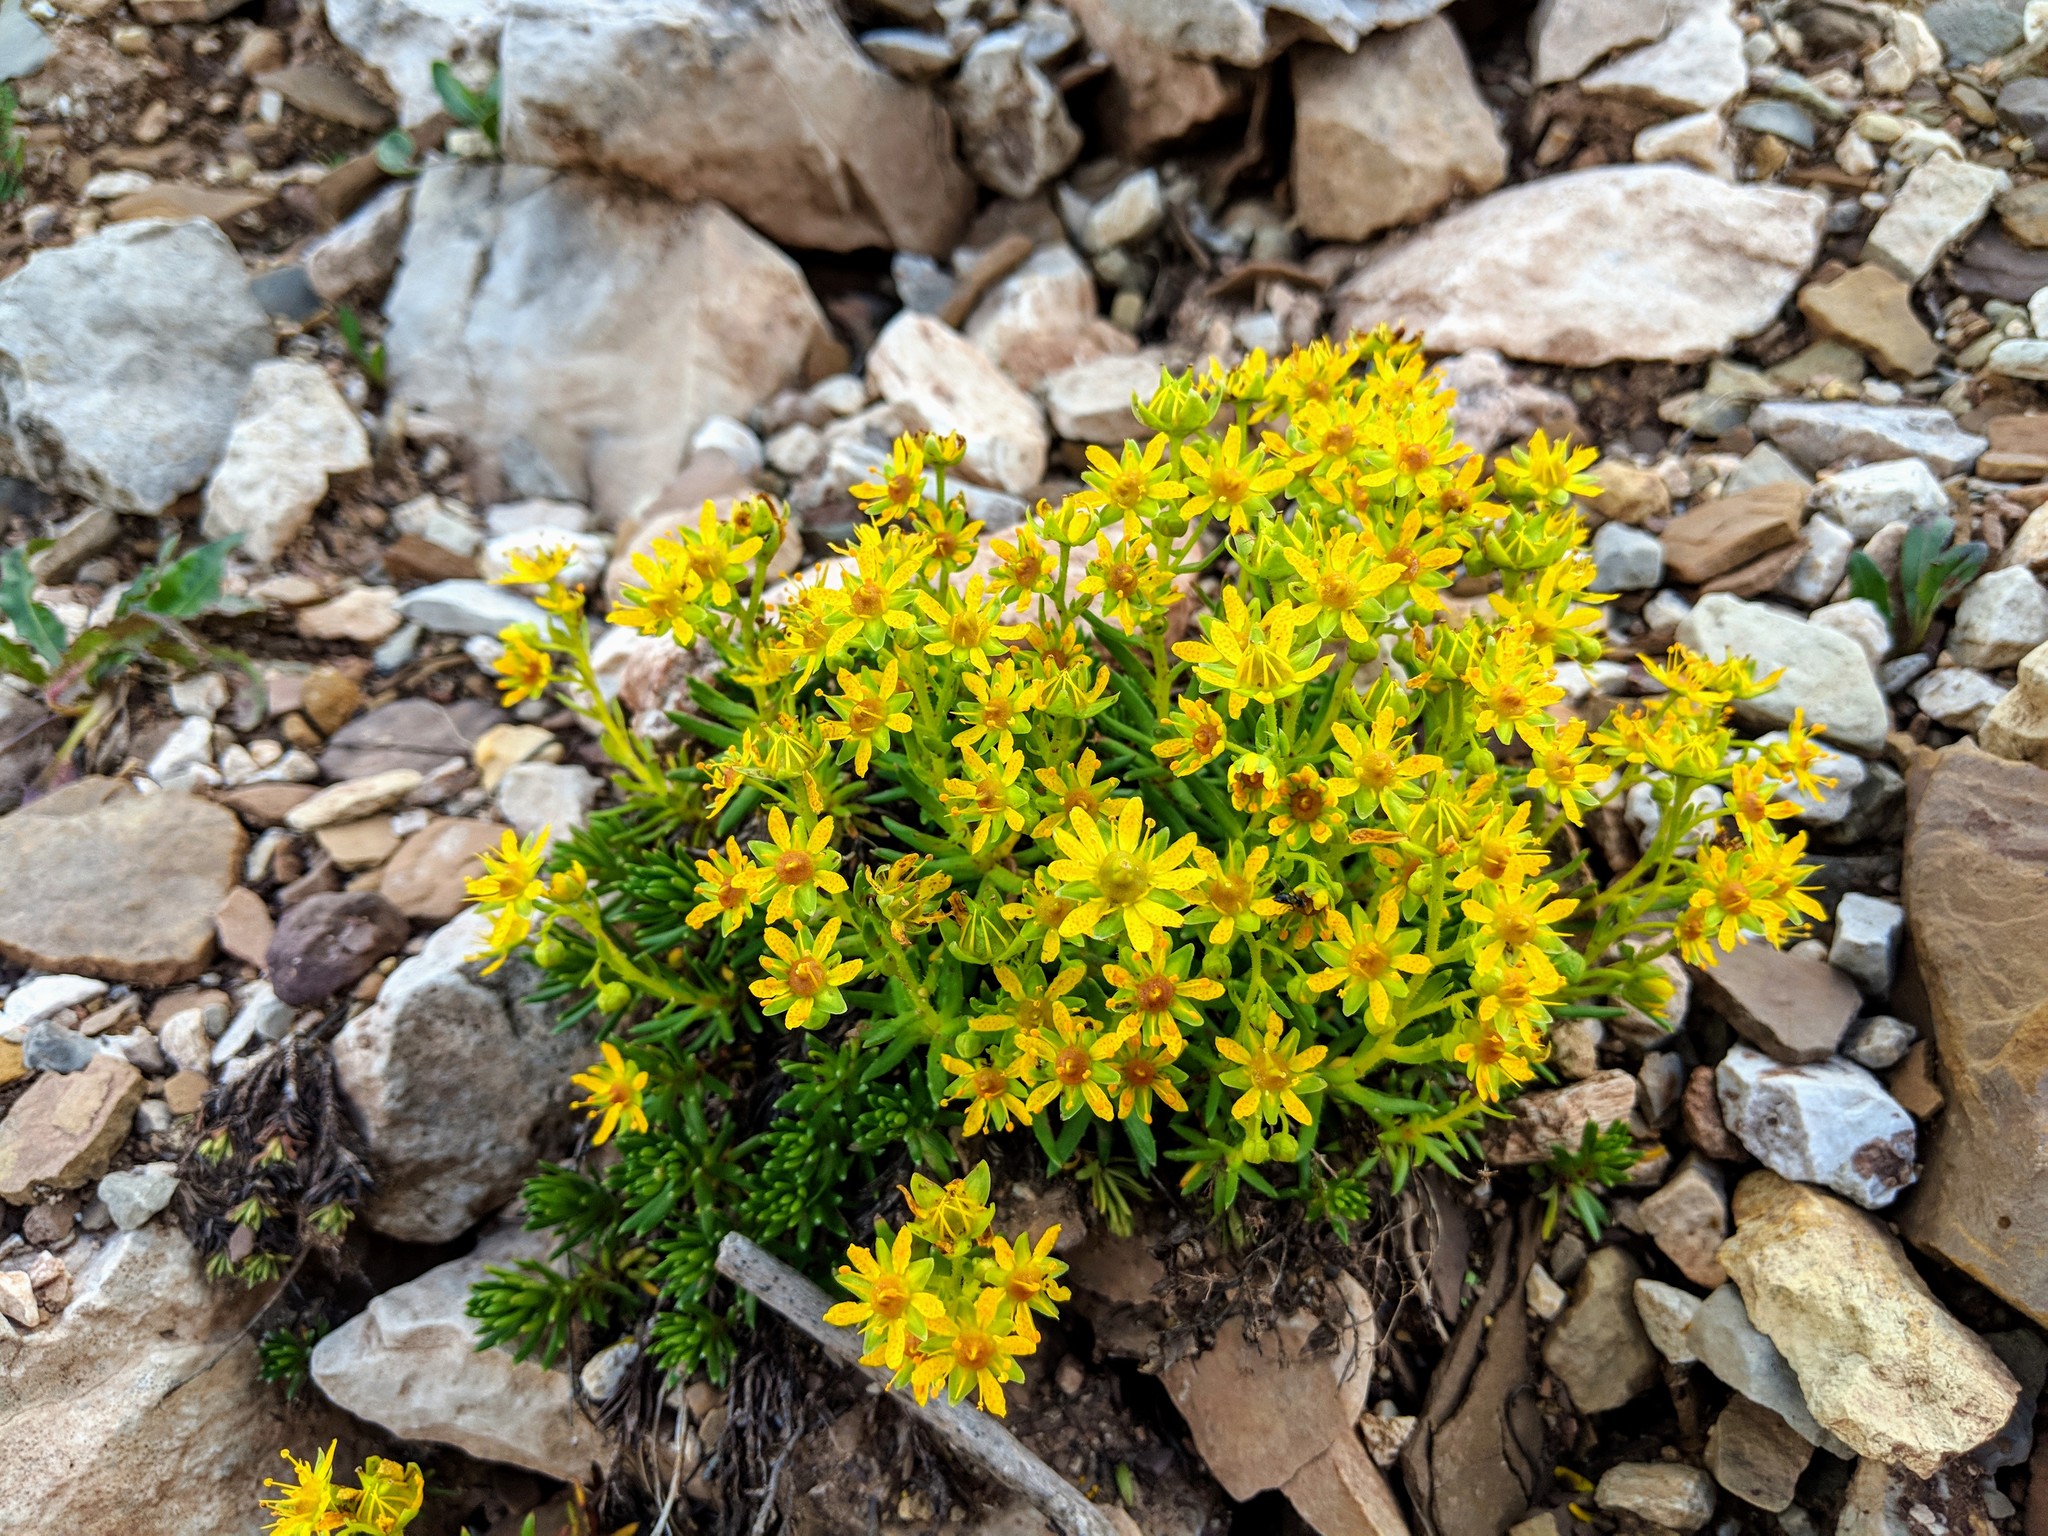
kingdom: Plantae
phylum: Tracheophyta
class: Magnoliopsida
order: Saxifragales
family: Saxifragaceae
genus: Saxifraga
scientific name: Saxifraga aizoides
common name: Yellow mountain saxifrage
